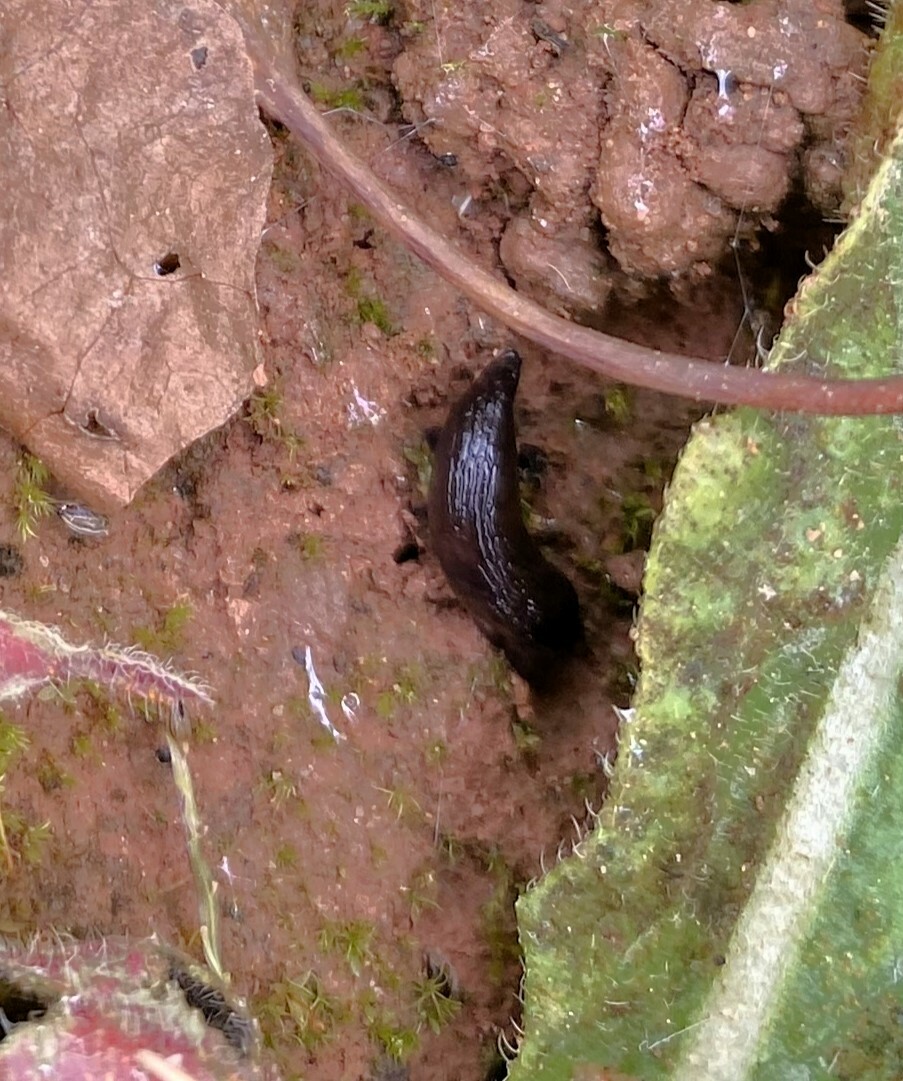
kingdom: Animalia
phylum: Mollusca
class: Gastropoda
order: Stylommatophora
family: Agriolimacidae
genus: Deroceras
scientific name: Deroceras laeve
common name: Marsh slug
